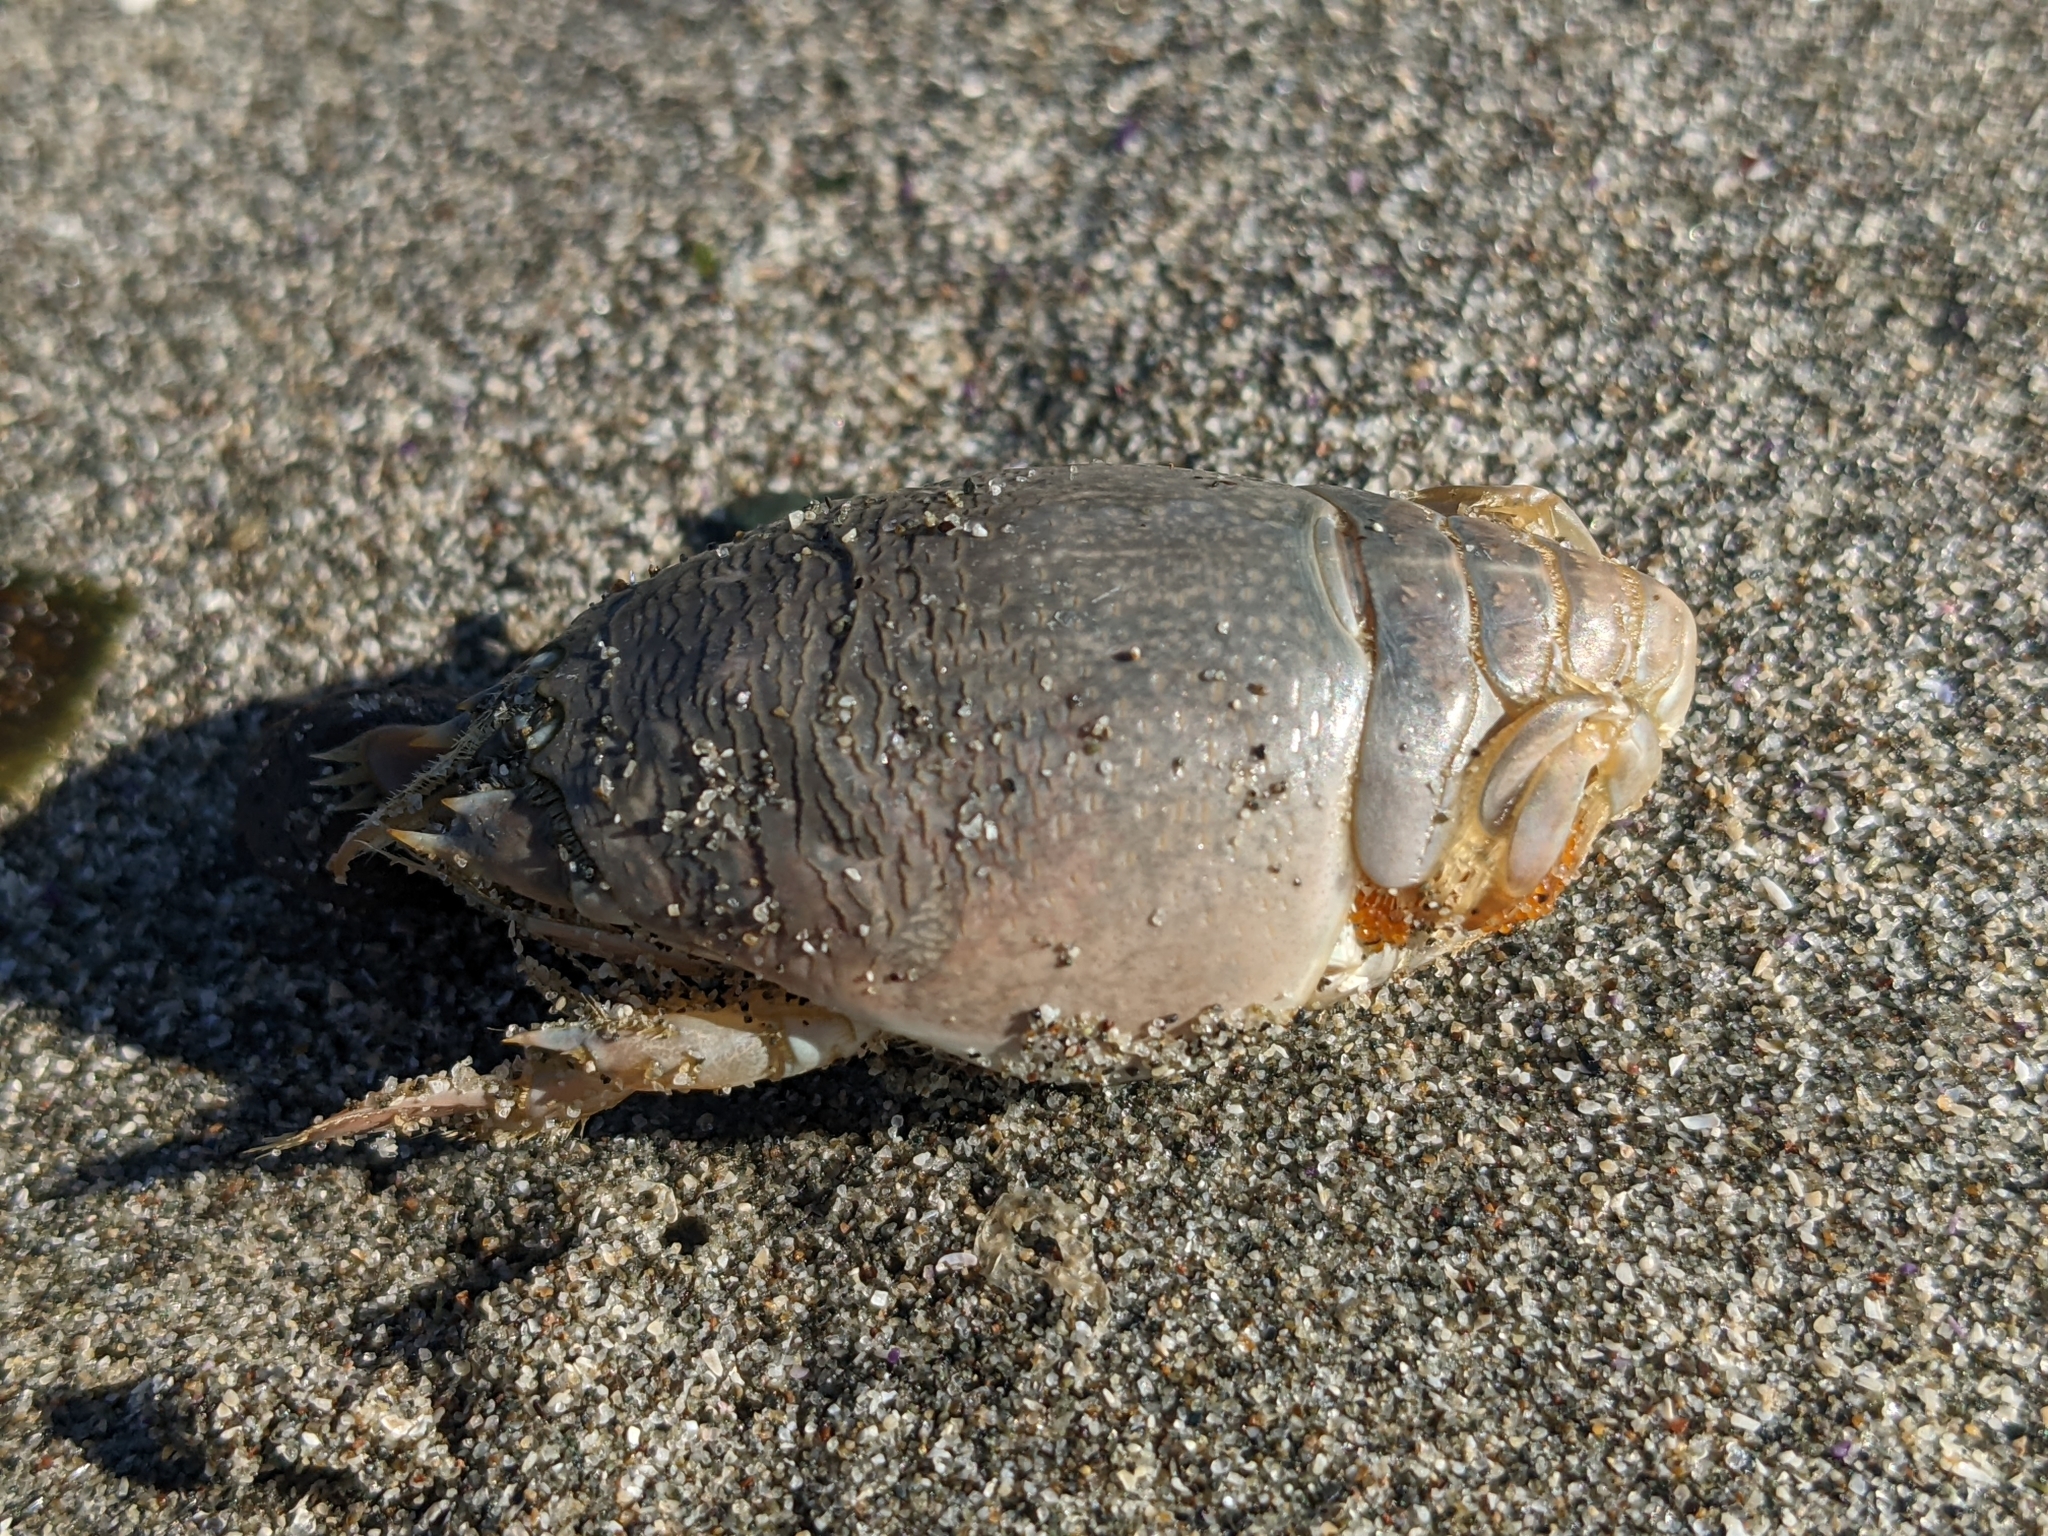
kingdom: Animalia
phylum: Arthropoda
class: Malacostraca
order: Decapoda
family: Hippidae
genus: Emerita
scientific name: Emerita analoga
